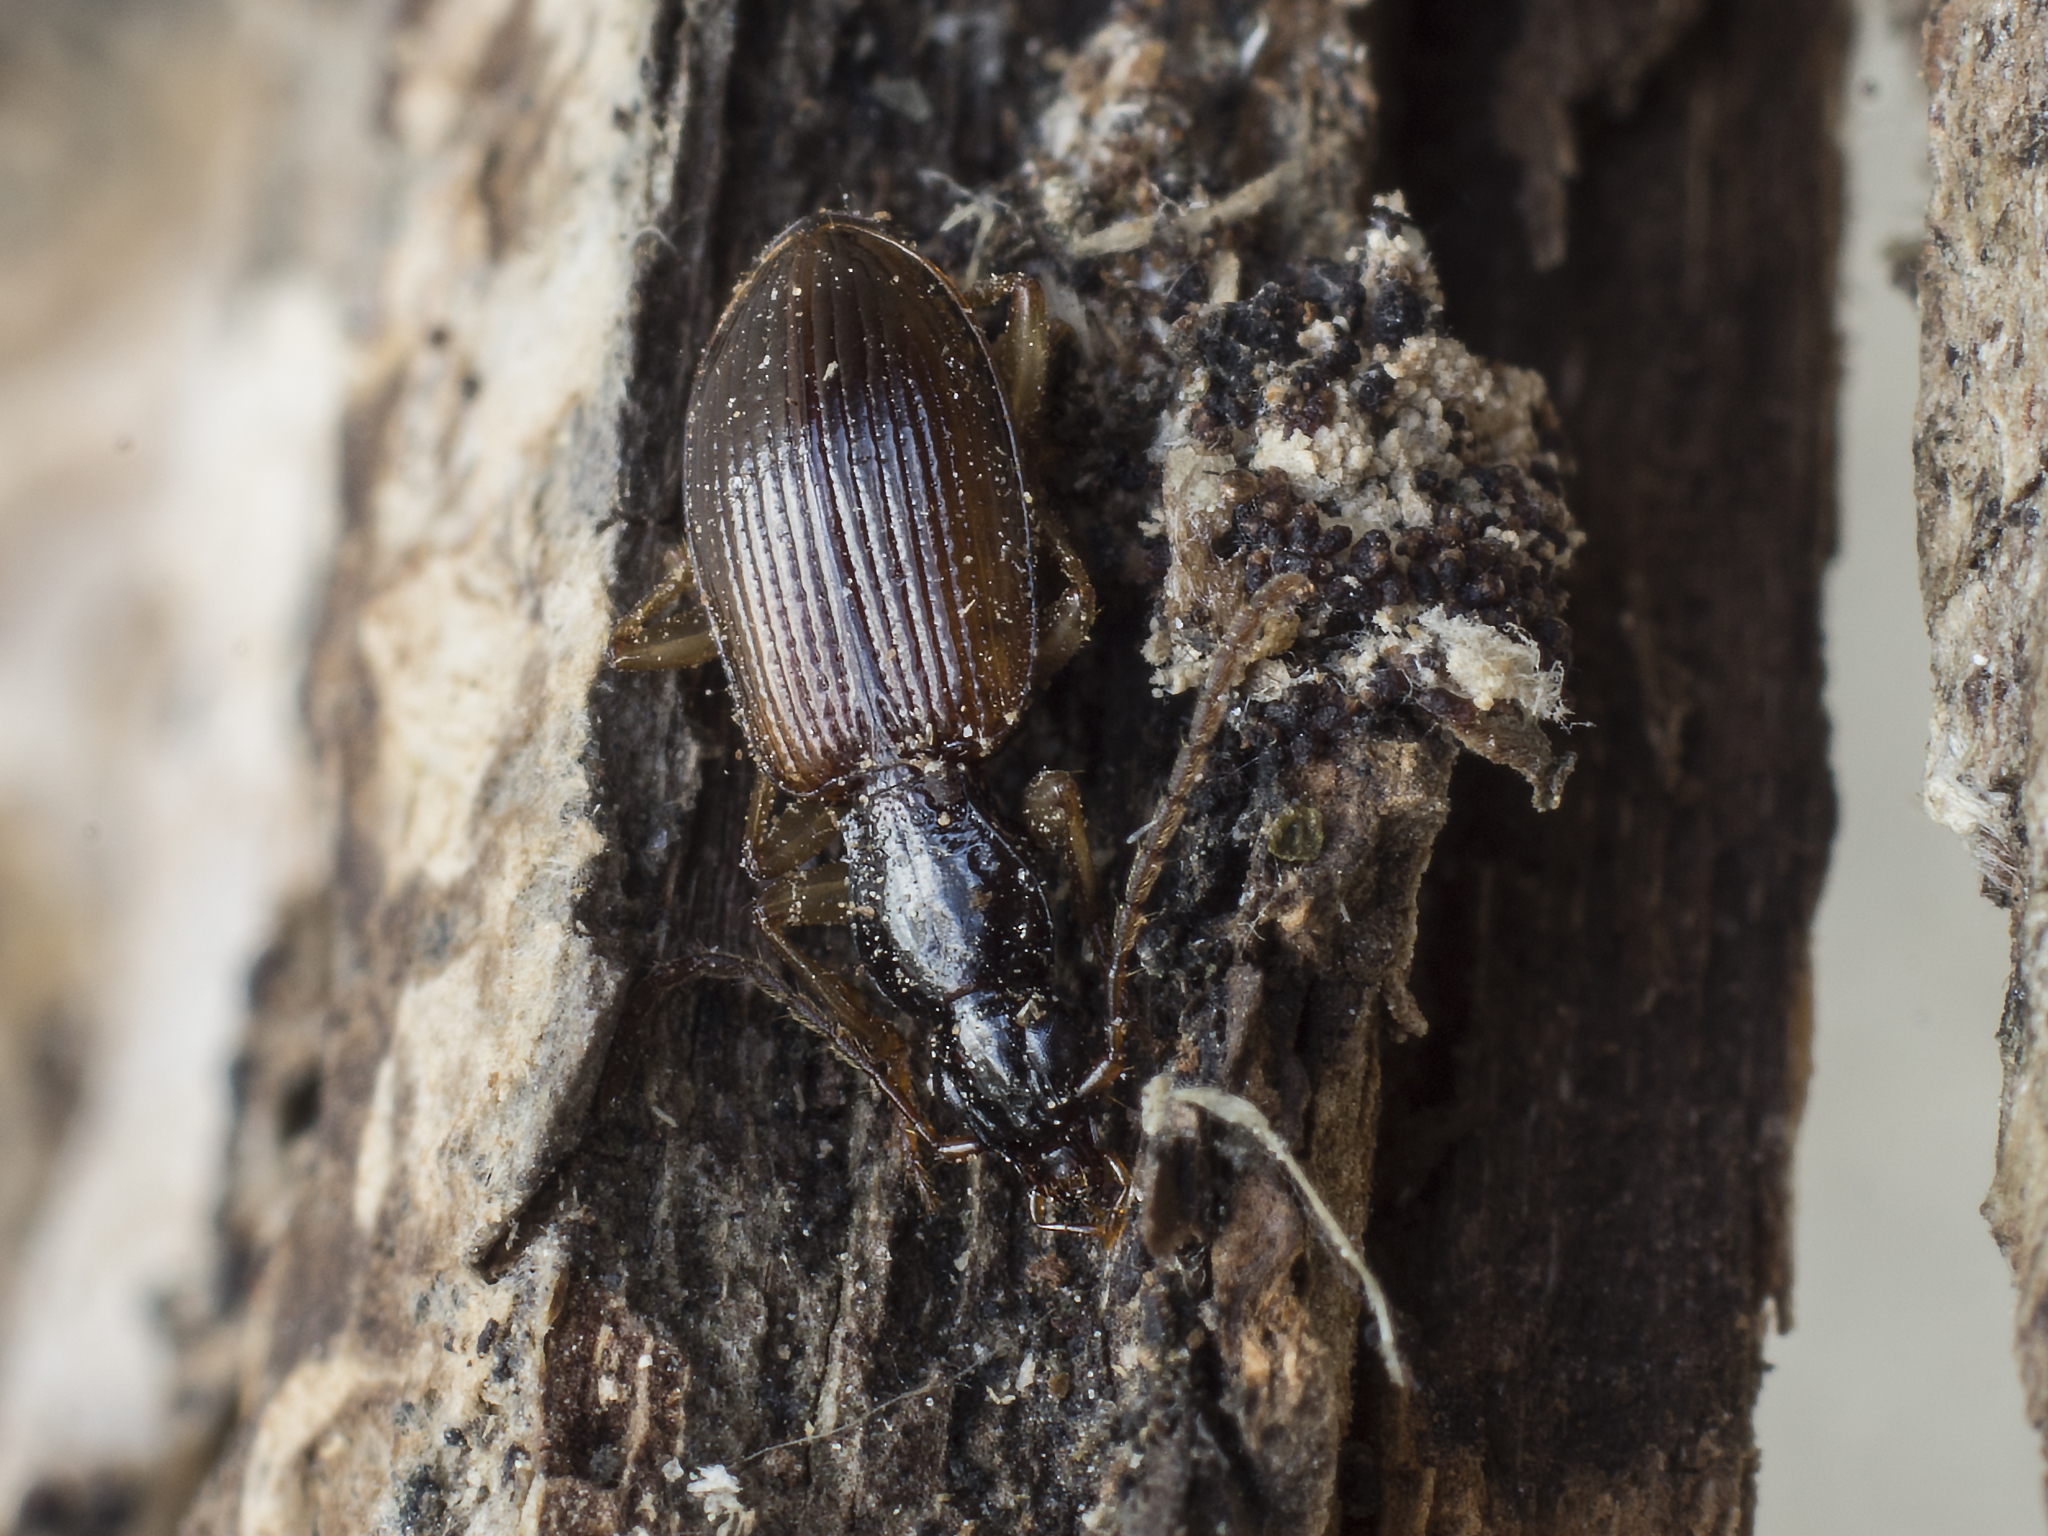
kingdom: Animalia
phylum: Arthropoda
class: Insecta
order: Coleoptera
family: Carabidae
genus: Oxypselaphus
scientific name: Oxypselaphus obscurus
